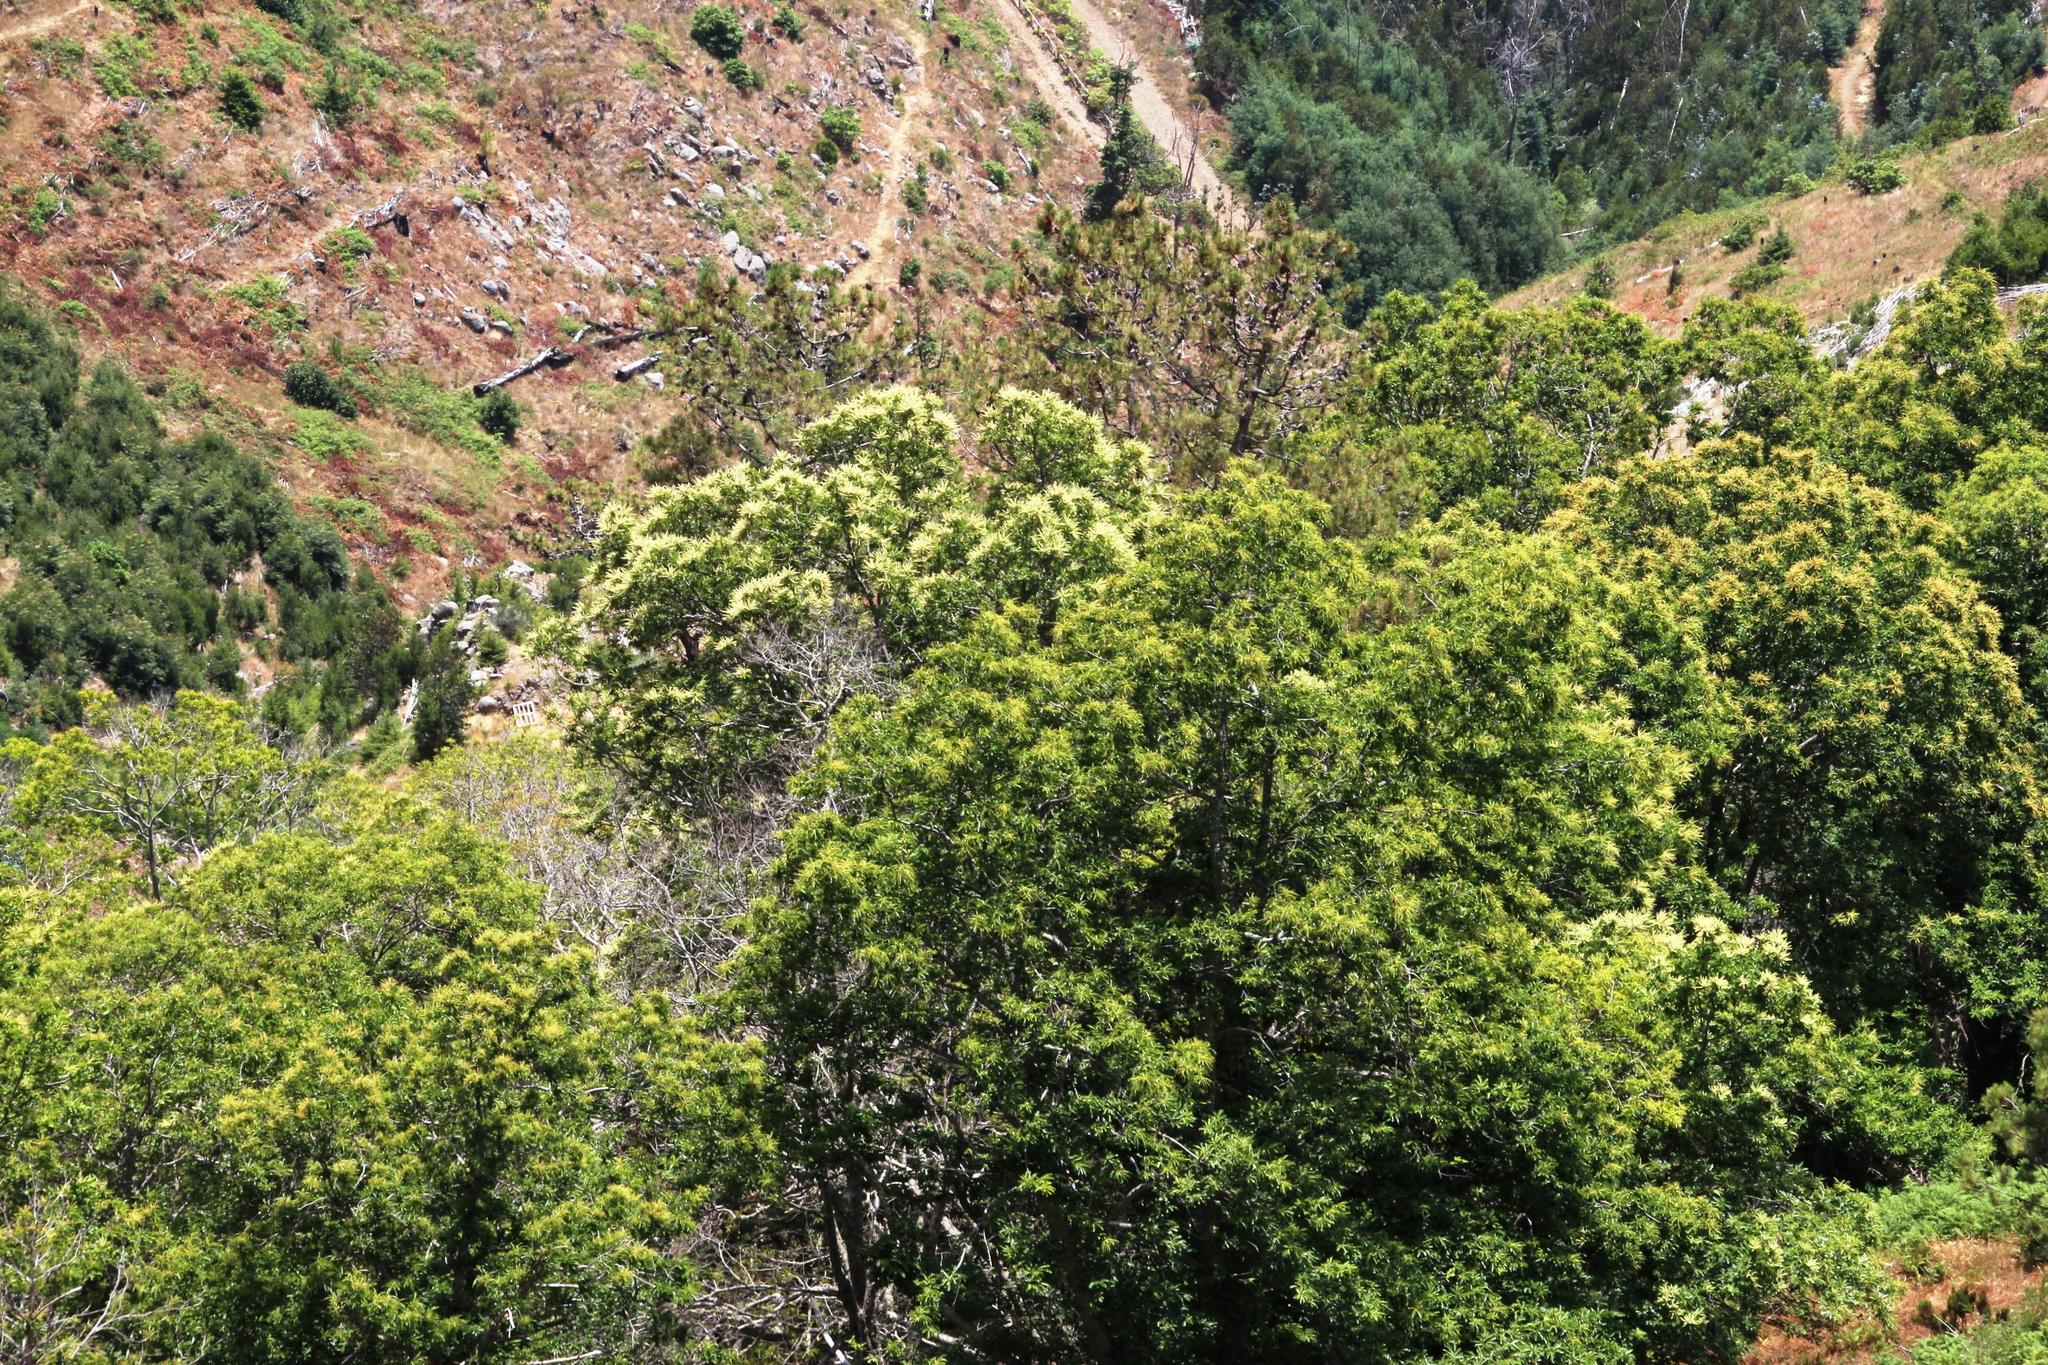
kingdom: Plantae
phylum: Tracheophyta
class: Magnoliopsida
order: Fabales
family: Fabaceae
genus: Acacia
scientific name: Acacia mearnsii
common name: Black wattle
